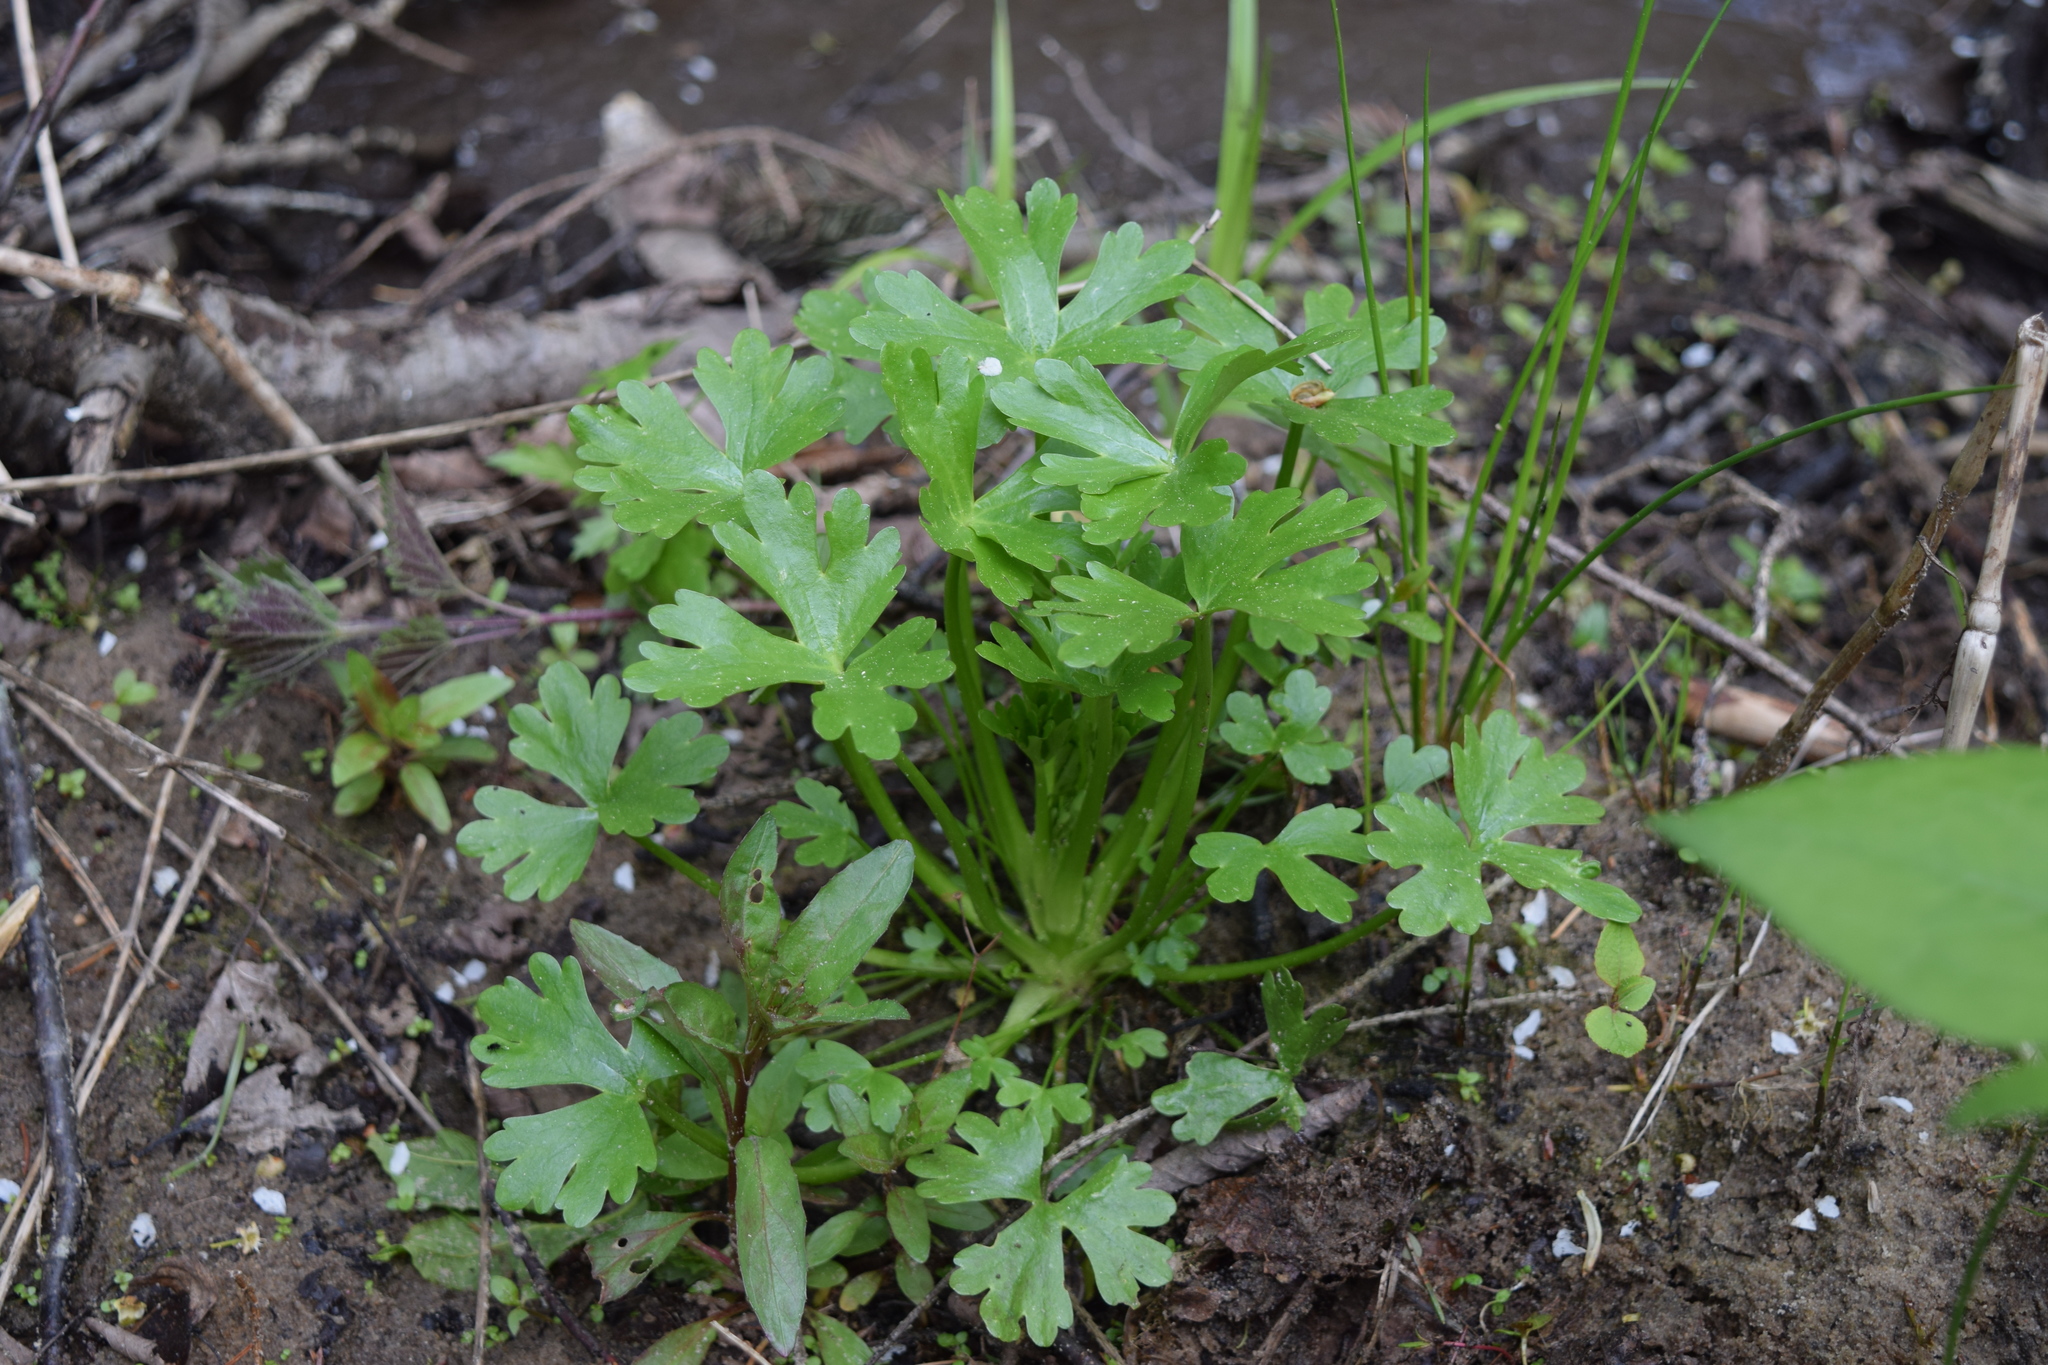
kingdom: Plantae
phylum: Tracheophyta
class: Magnoliopsida
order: Ranunculales
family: Ranunculaceae
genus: Ranunculus
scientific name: Ranunculus sceleratus
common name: Celery-leaved buttercup
